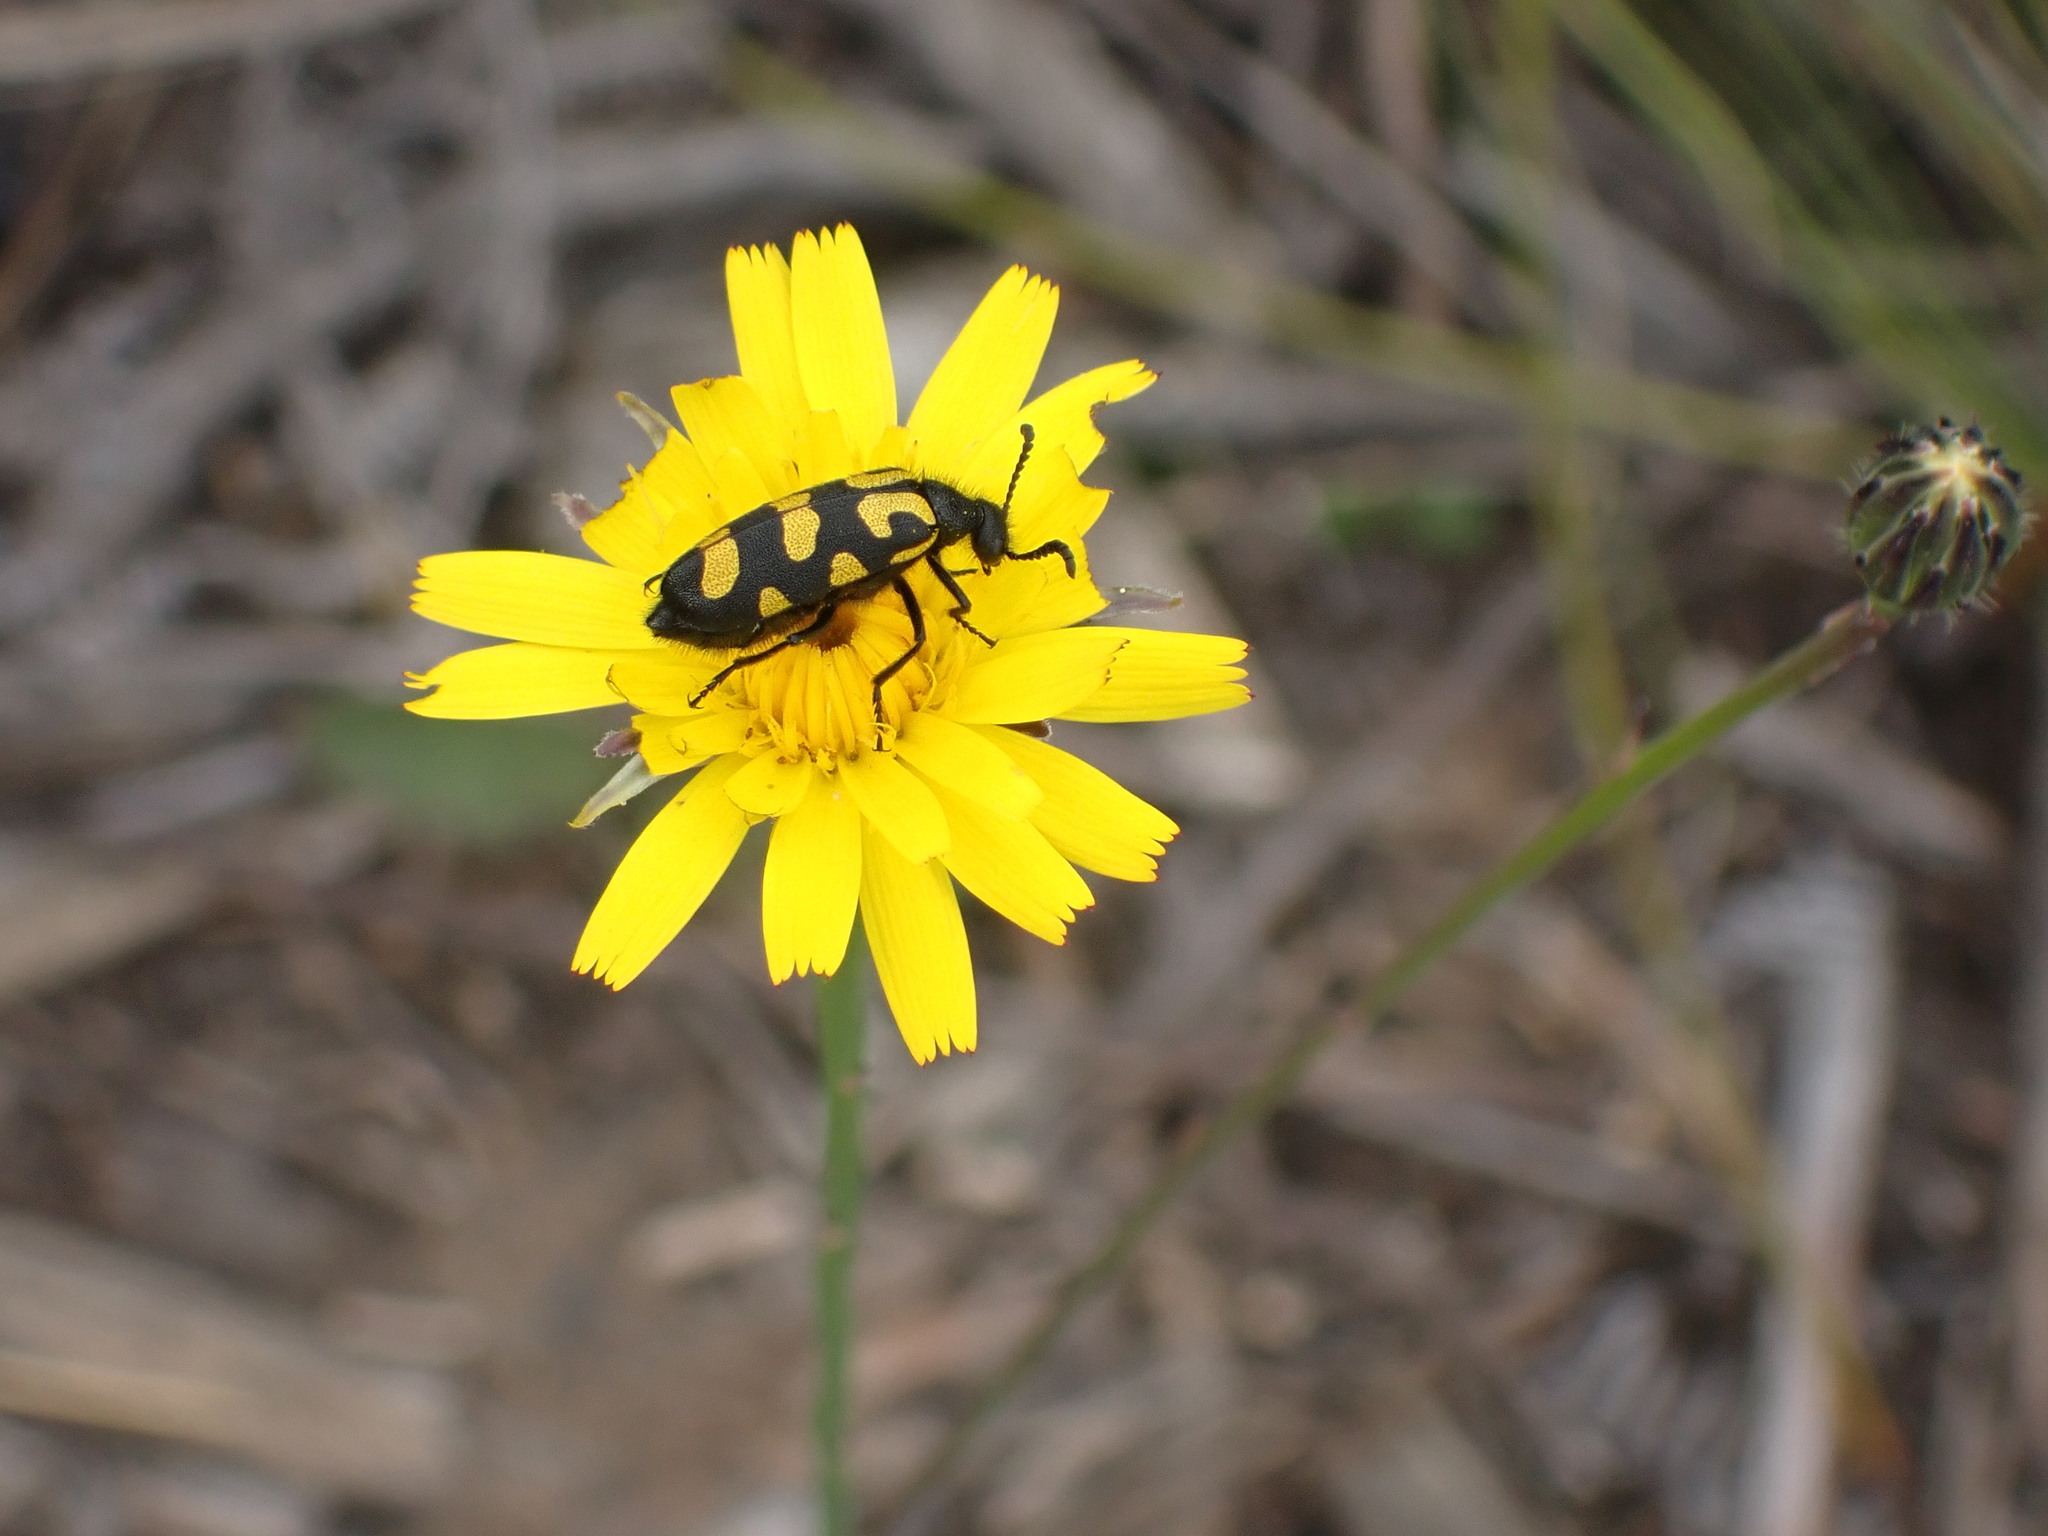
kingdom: Animalia
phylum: Arthropoda
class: Insecta
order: Coleoptera
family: Meloidae
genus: Ceroctis
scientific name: Ceroctis capensis
